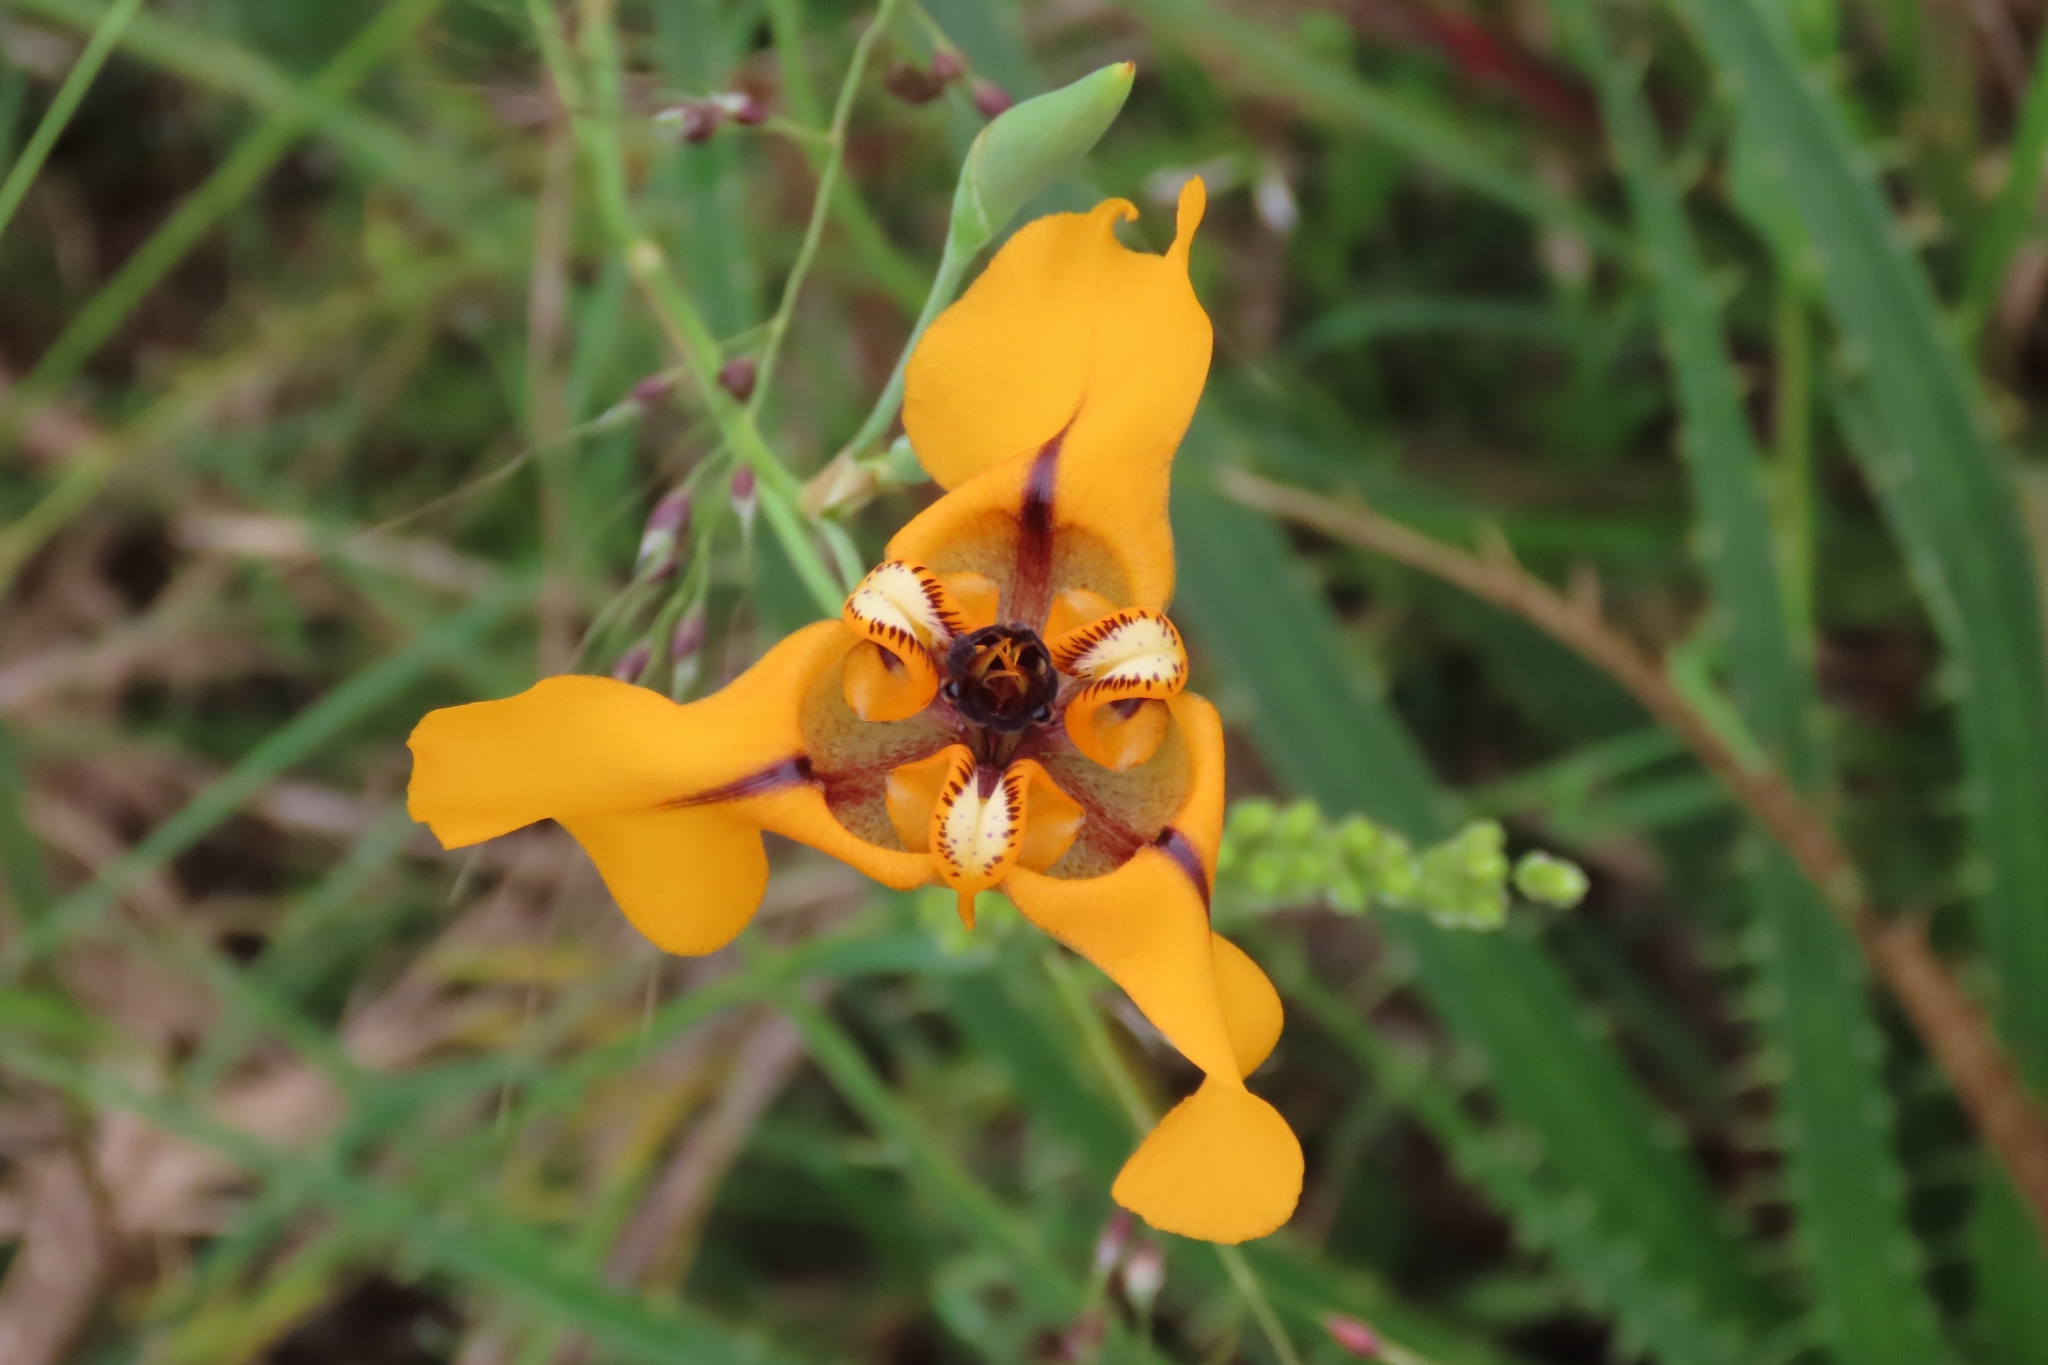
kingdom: Plantae
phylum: Tracheophyta
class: Liliopsida
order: Asparagales
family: Iridaceae
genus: Cypella
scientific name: Cypella herbertii
